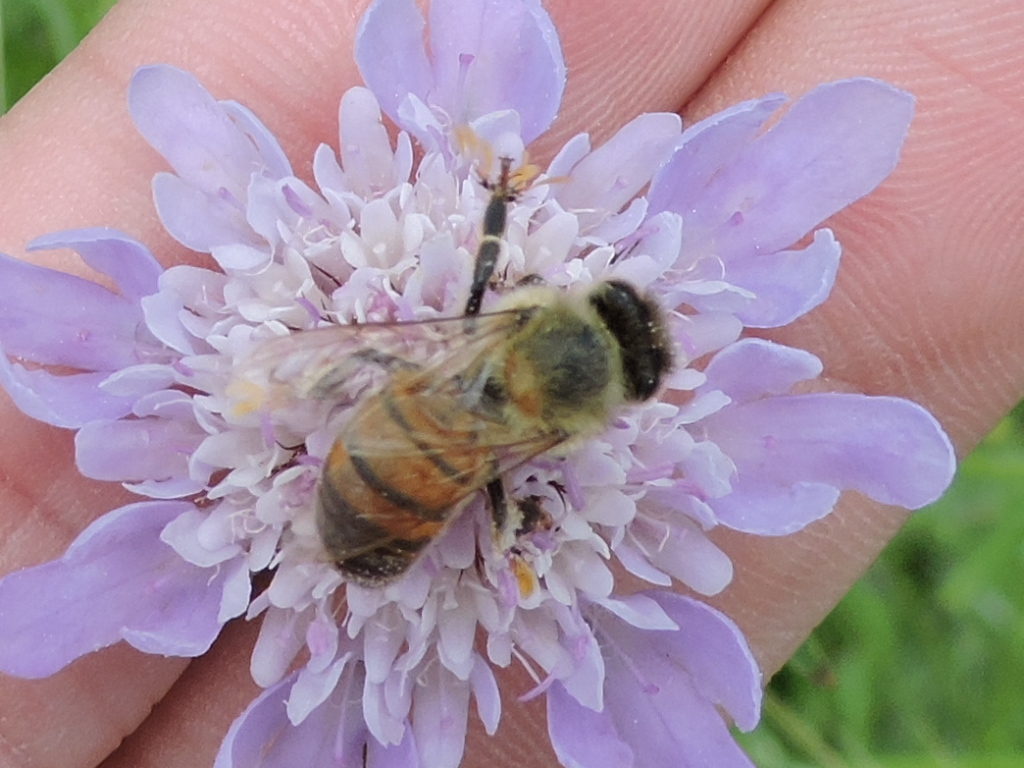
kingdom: Animalia
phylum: Arthropoda
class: Insecta
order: Hymenoptera
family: Apidae
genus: Apis
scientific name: Apis mellifera
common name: Honey bee
